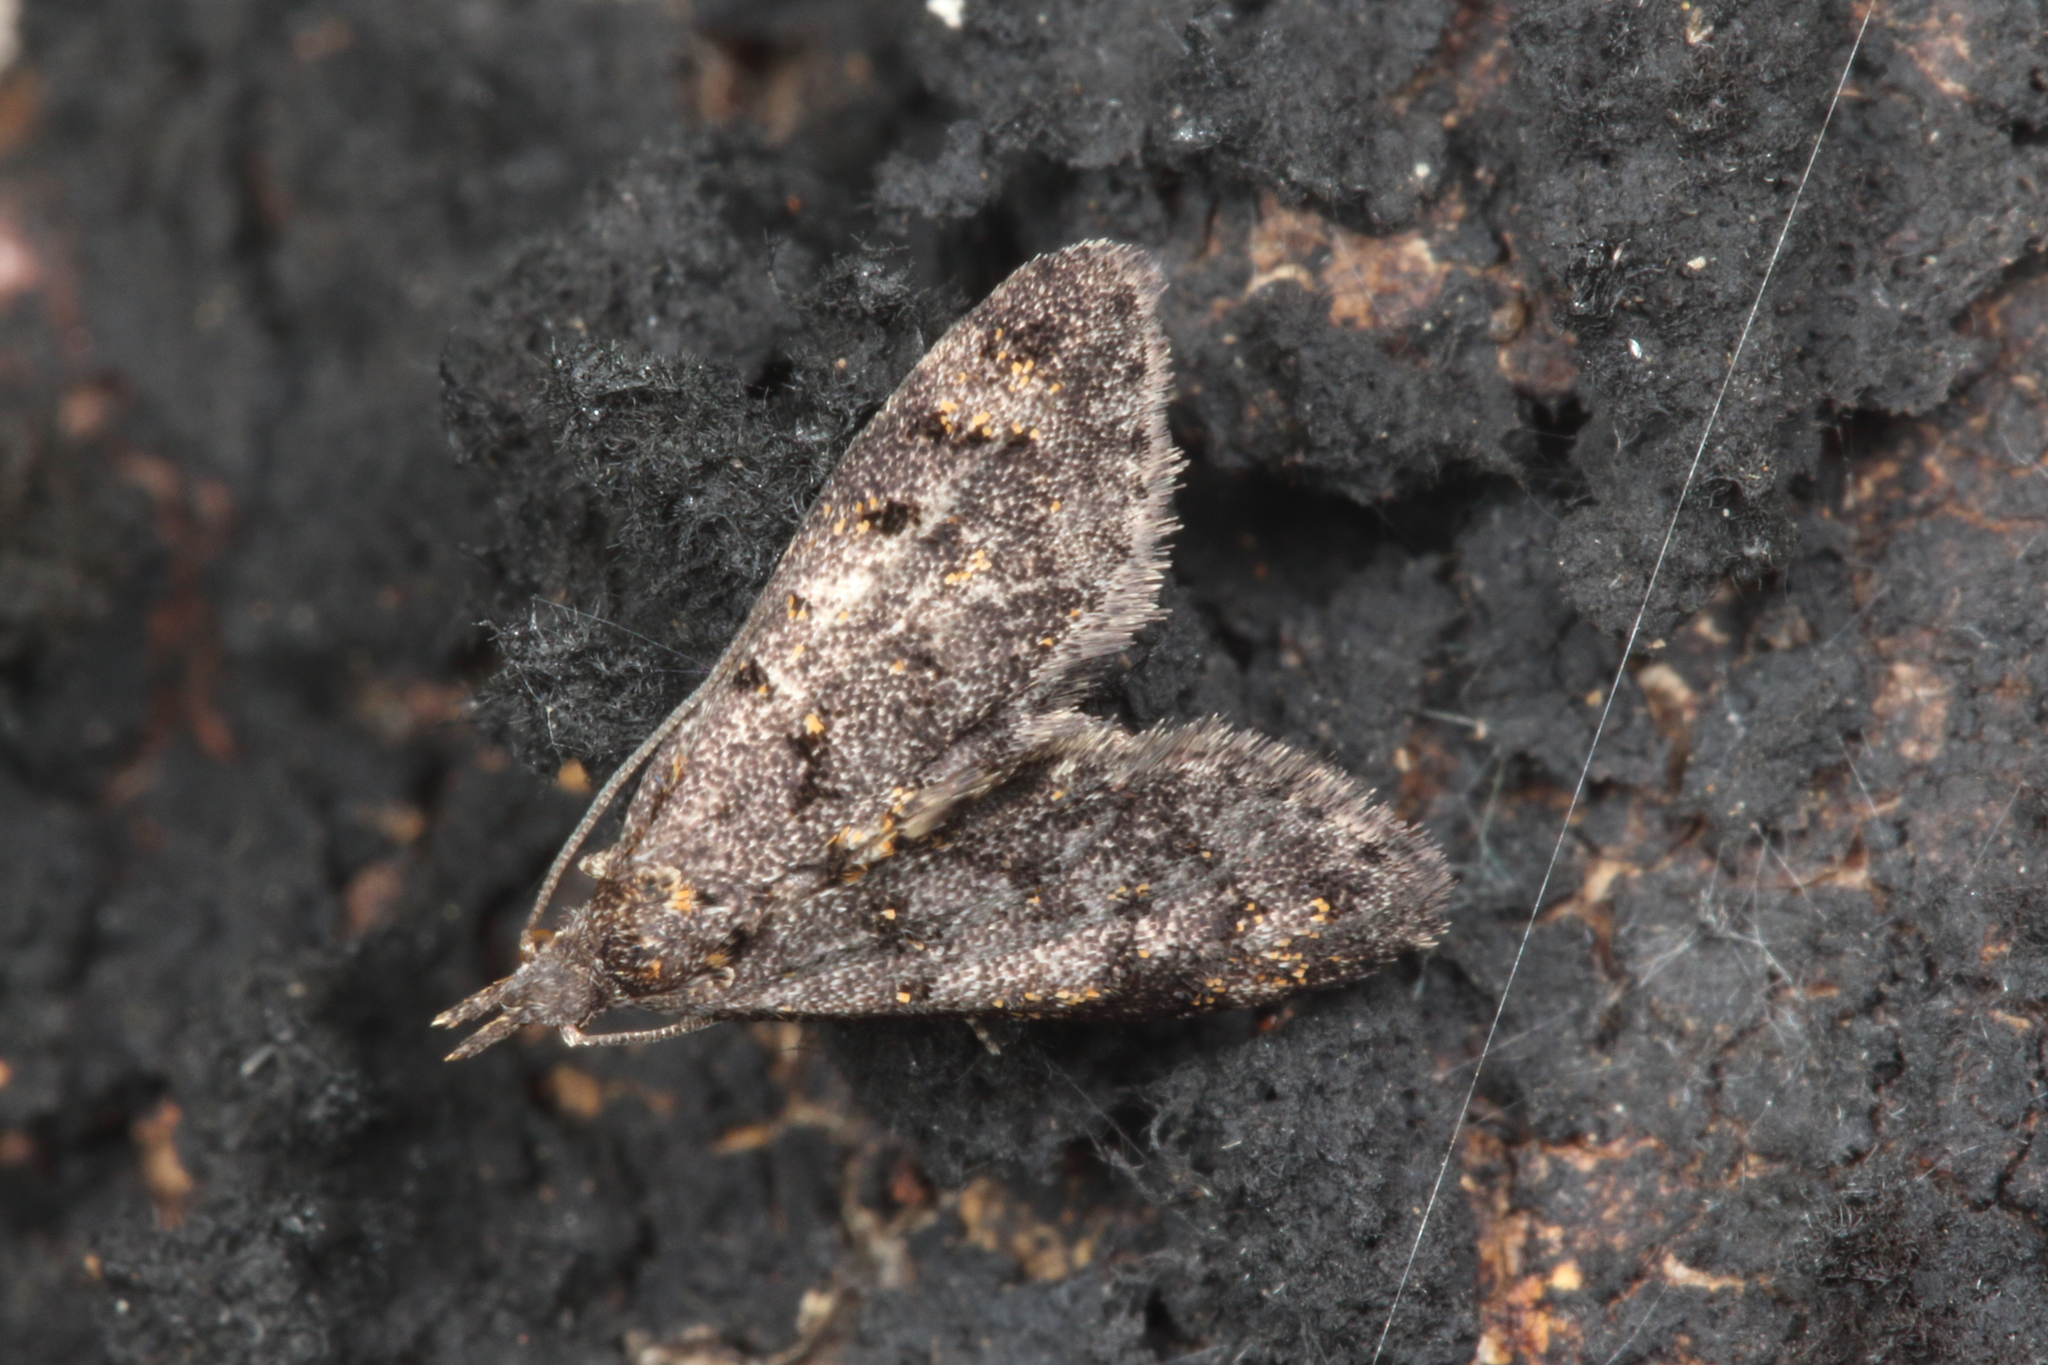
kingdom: Animalia
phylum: Arthropoda
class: Insecta
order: Lepidoptera
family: Copromorphidae
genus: Isonomeutis
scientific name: Isonomeutis amauropa
